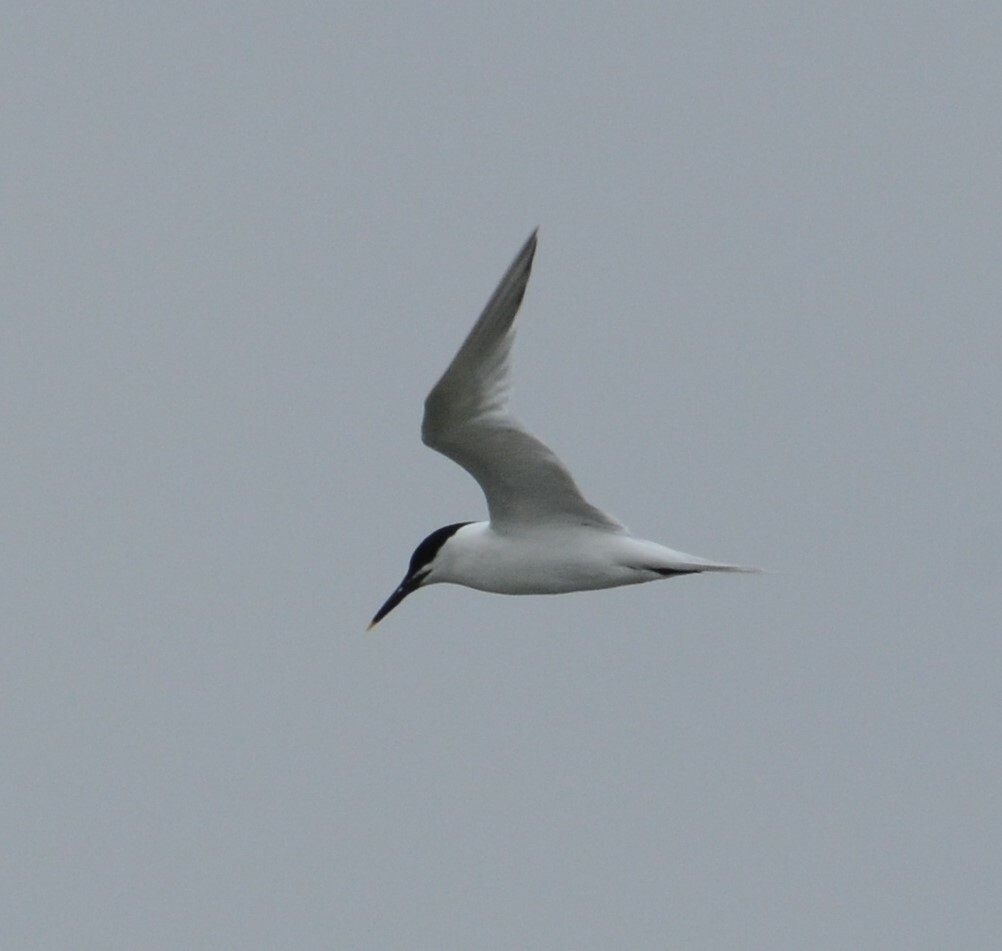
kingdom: Animalia
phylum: Chordata
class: Aves
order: Charadriiformes
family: Laridae
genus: Thalasseus
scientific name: Thalasseus sandvicensis
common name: Sandwich tern
